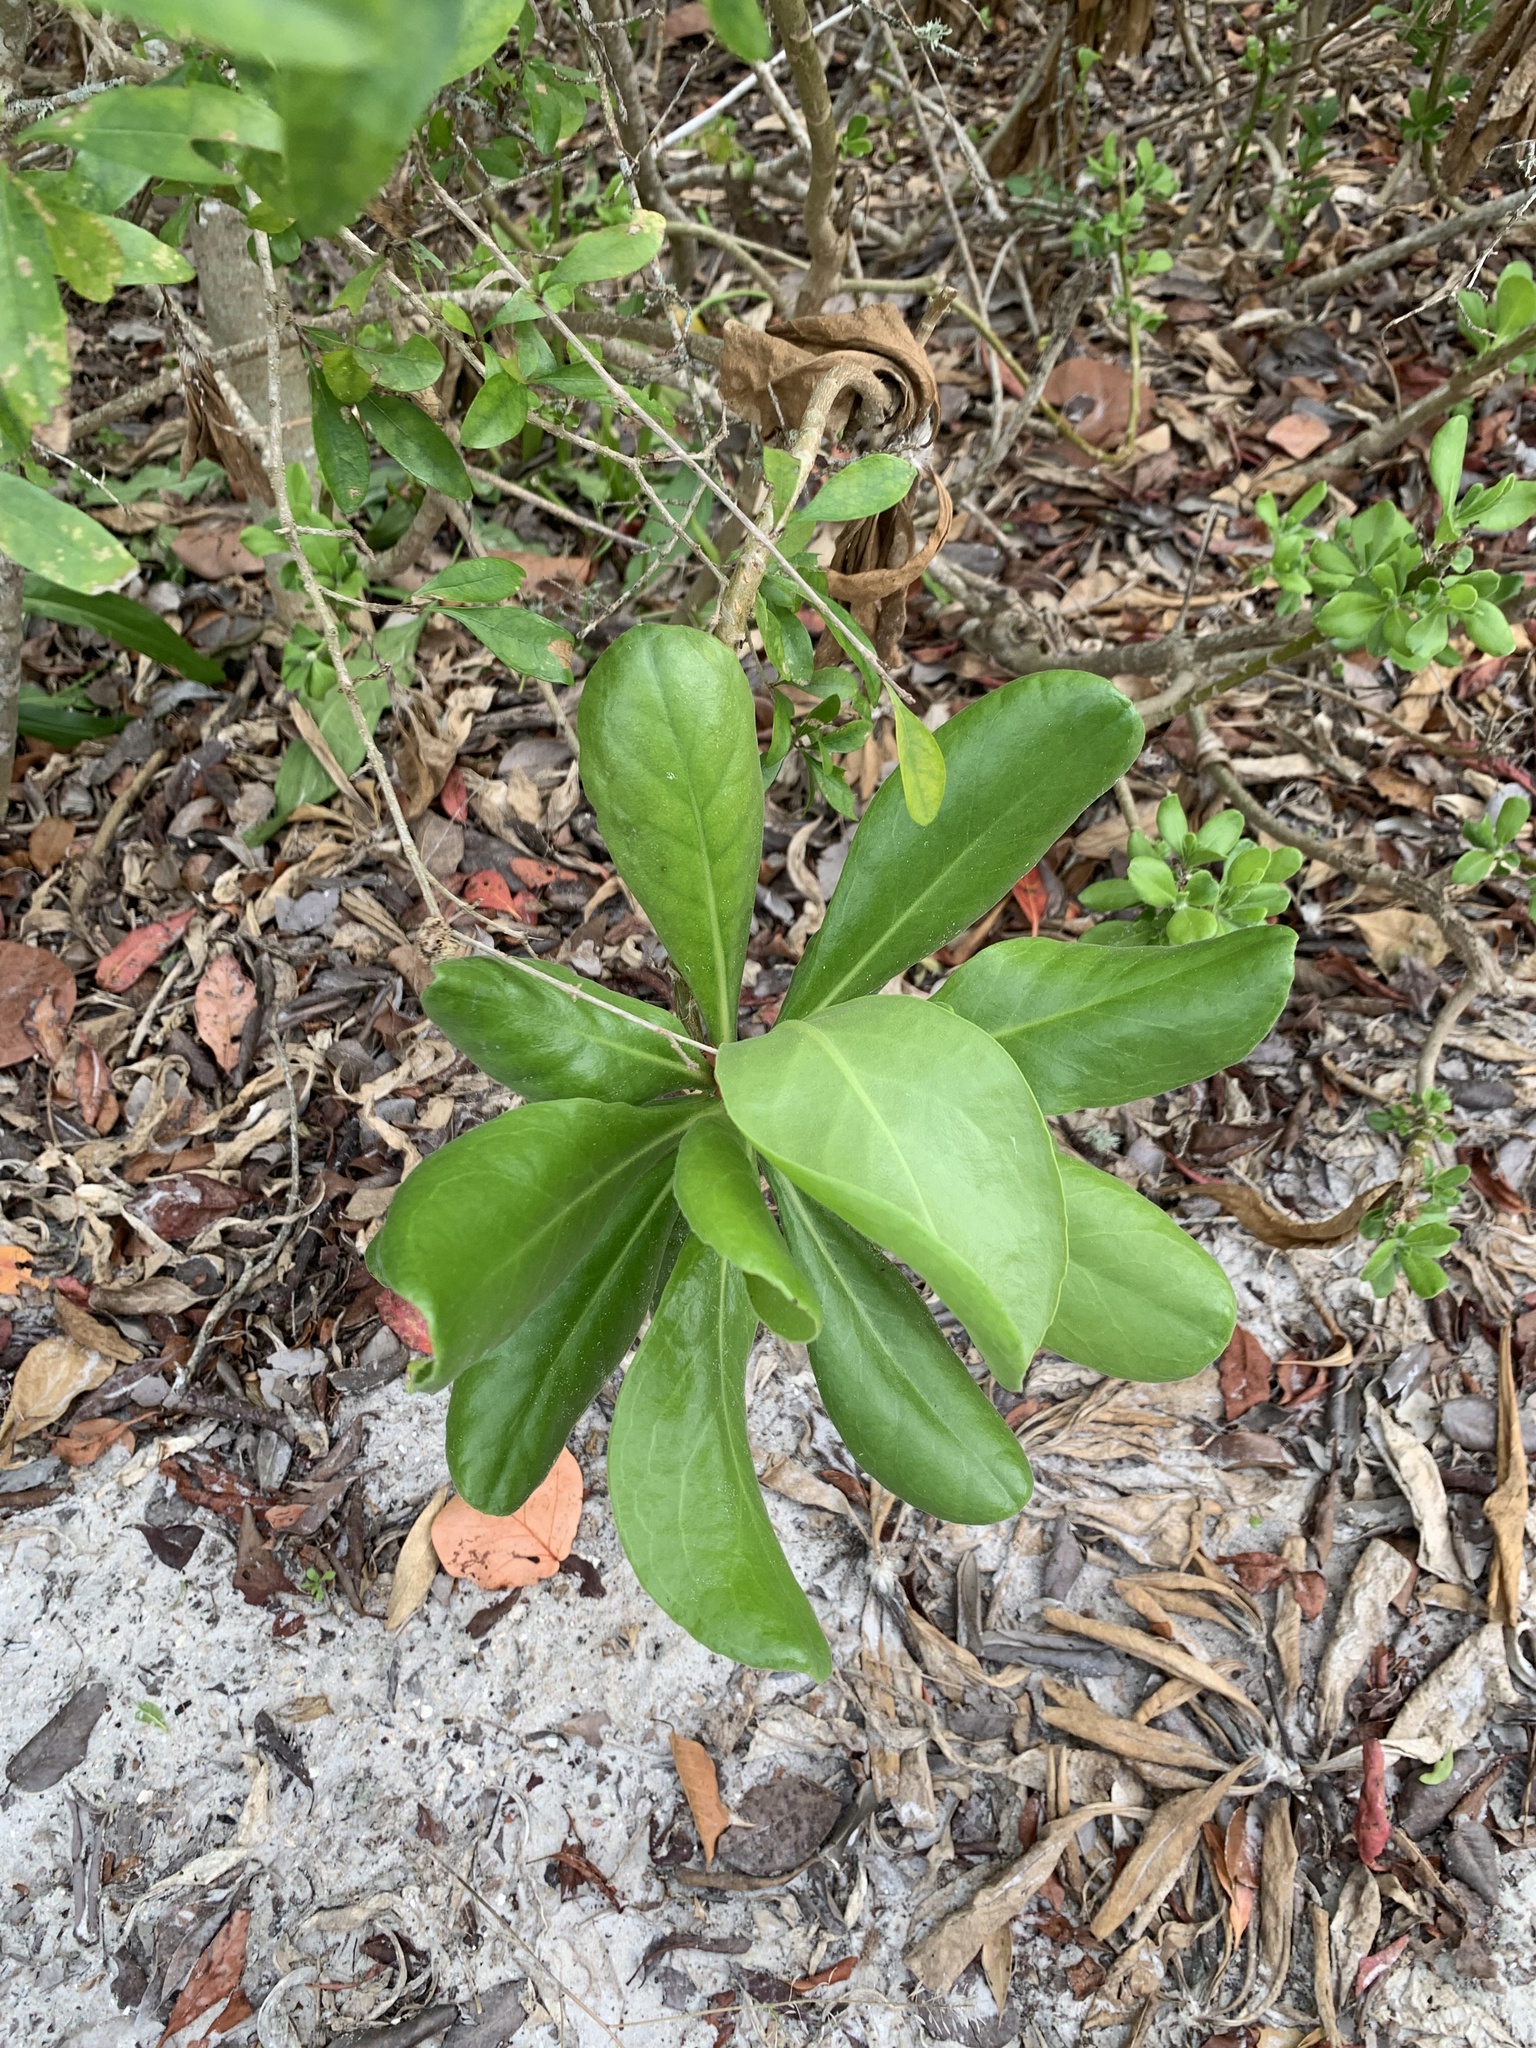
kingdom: Plantae
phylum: Tracheophyta
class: Magnoliopsida
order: Asterales
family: Goodeniaceae
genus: Scaevola
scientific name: Scaevola taccada
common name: Sea lettucetree
